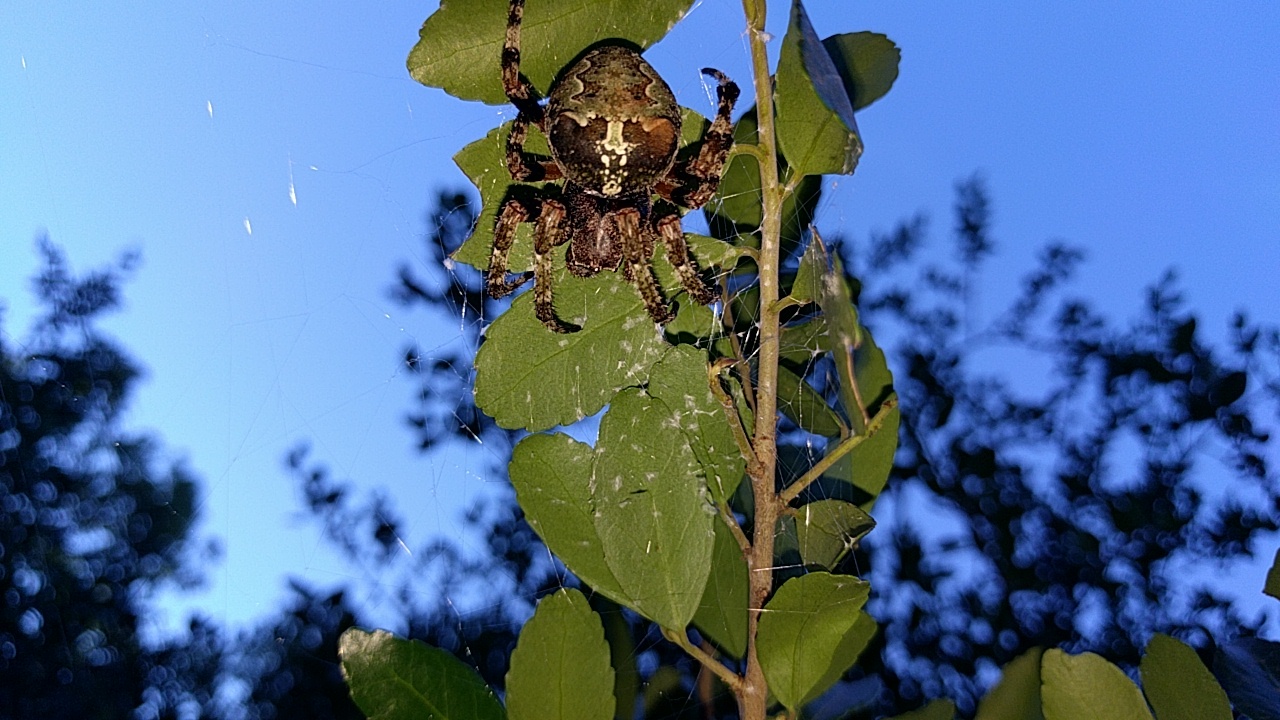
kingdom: Animalia
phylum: Arthropoda
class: Arachnida
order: Araneae
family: Araneidae
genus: Araneus
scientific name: Araneus bicentenarius
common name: Giant lichen orbweaver
